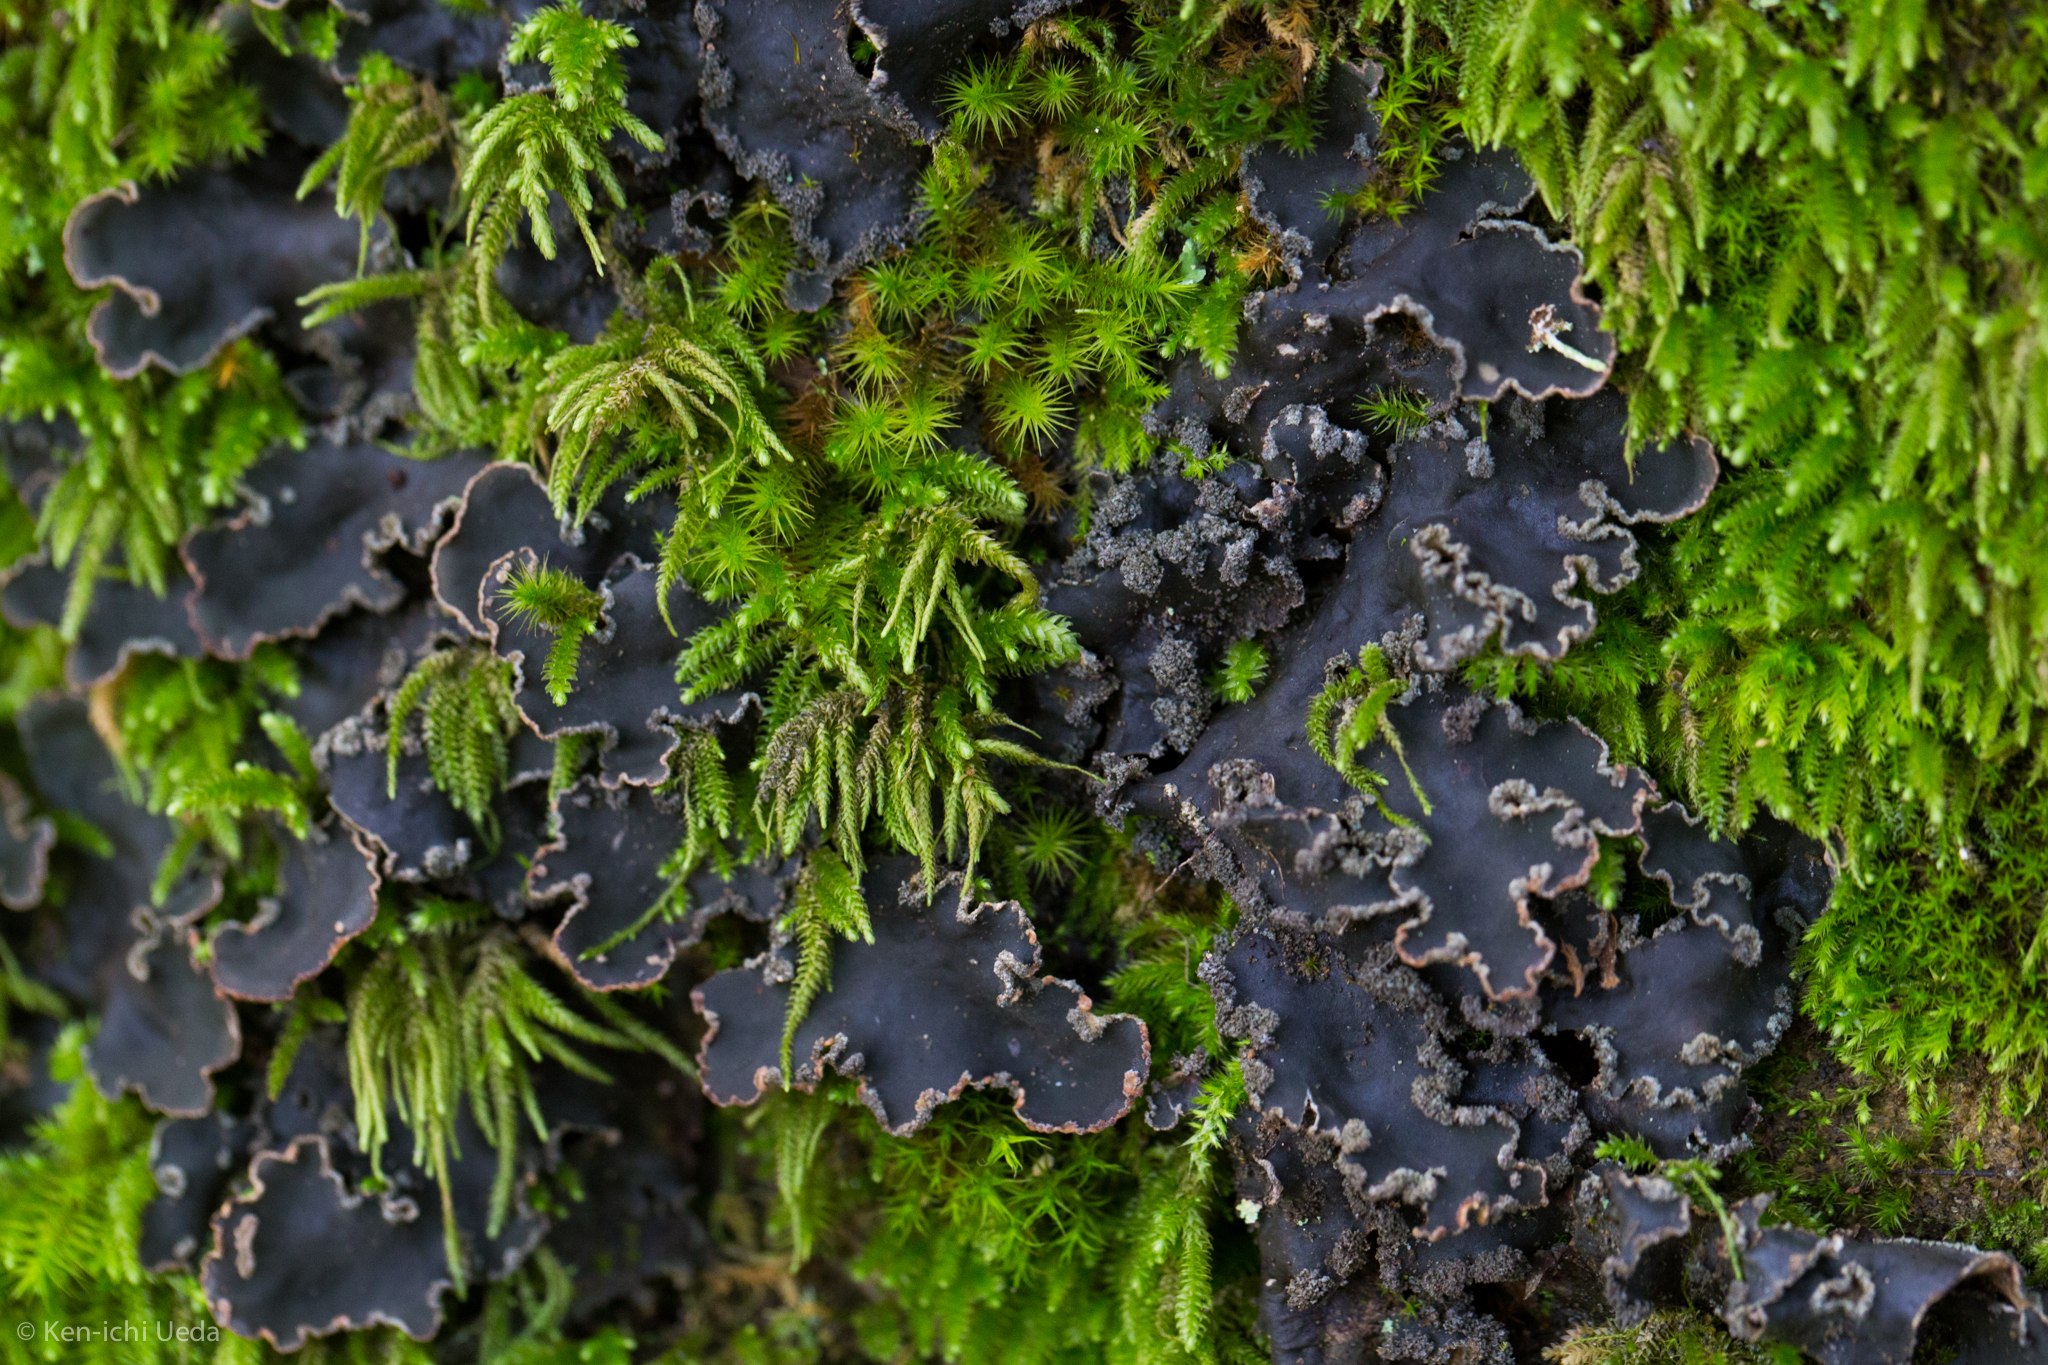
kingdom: Fungi
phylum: Ascomycota
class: Lecanoromycetes
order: Peltigerales
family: Peltigeraceae
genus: Peltigera
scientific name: Peltigera collina
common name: Gritty tree pelt lichen
